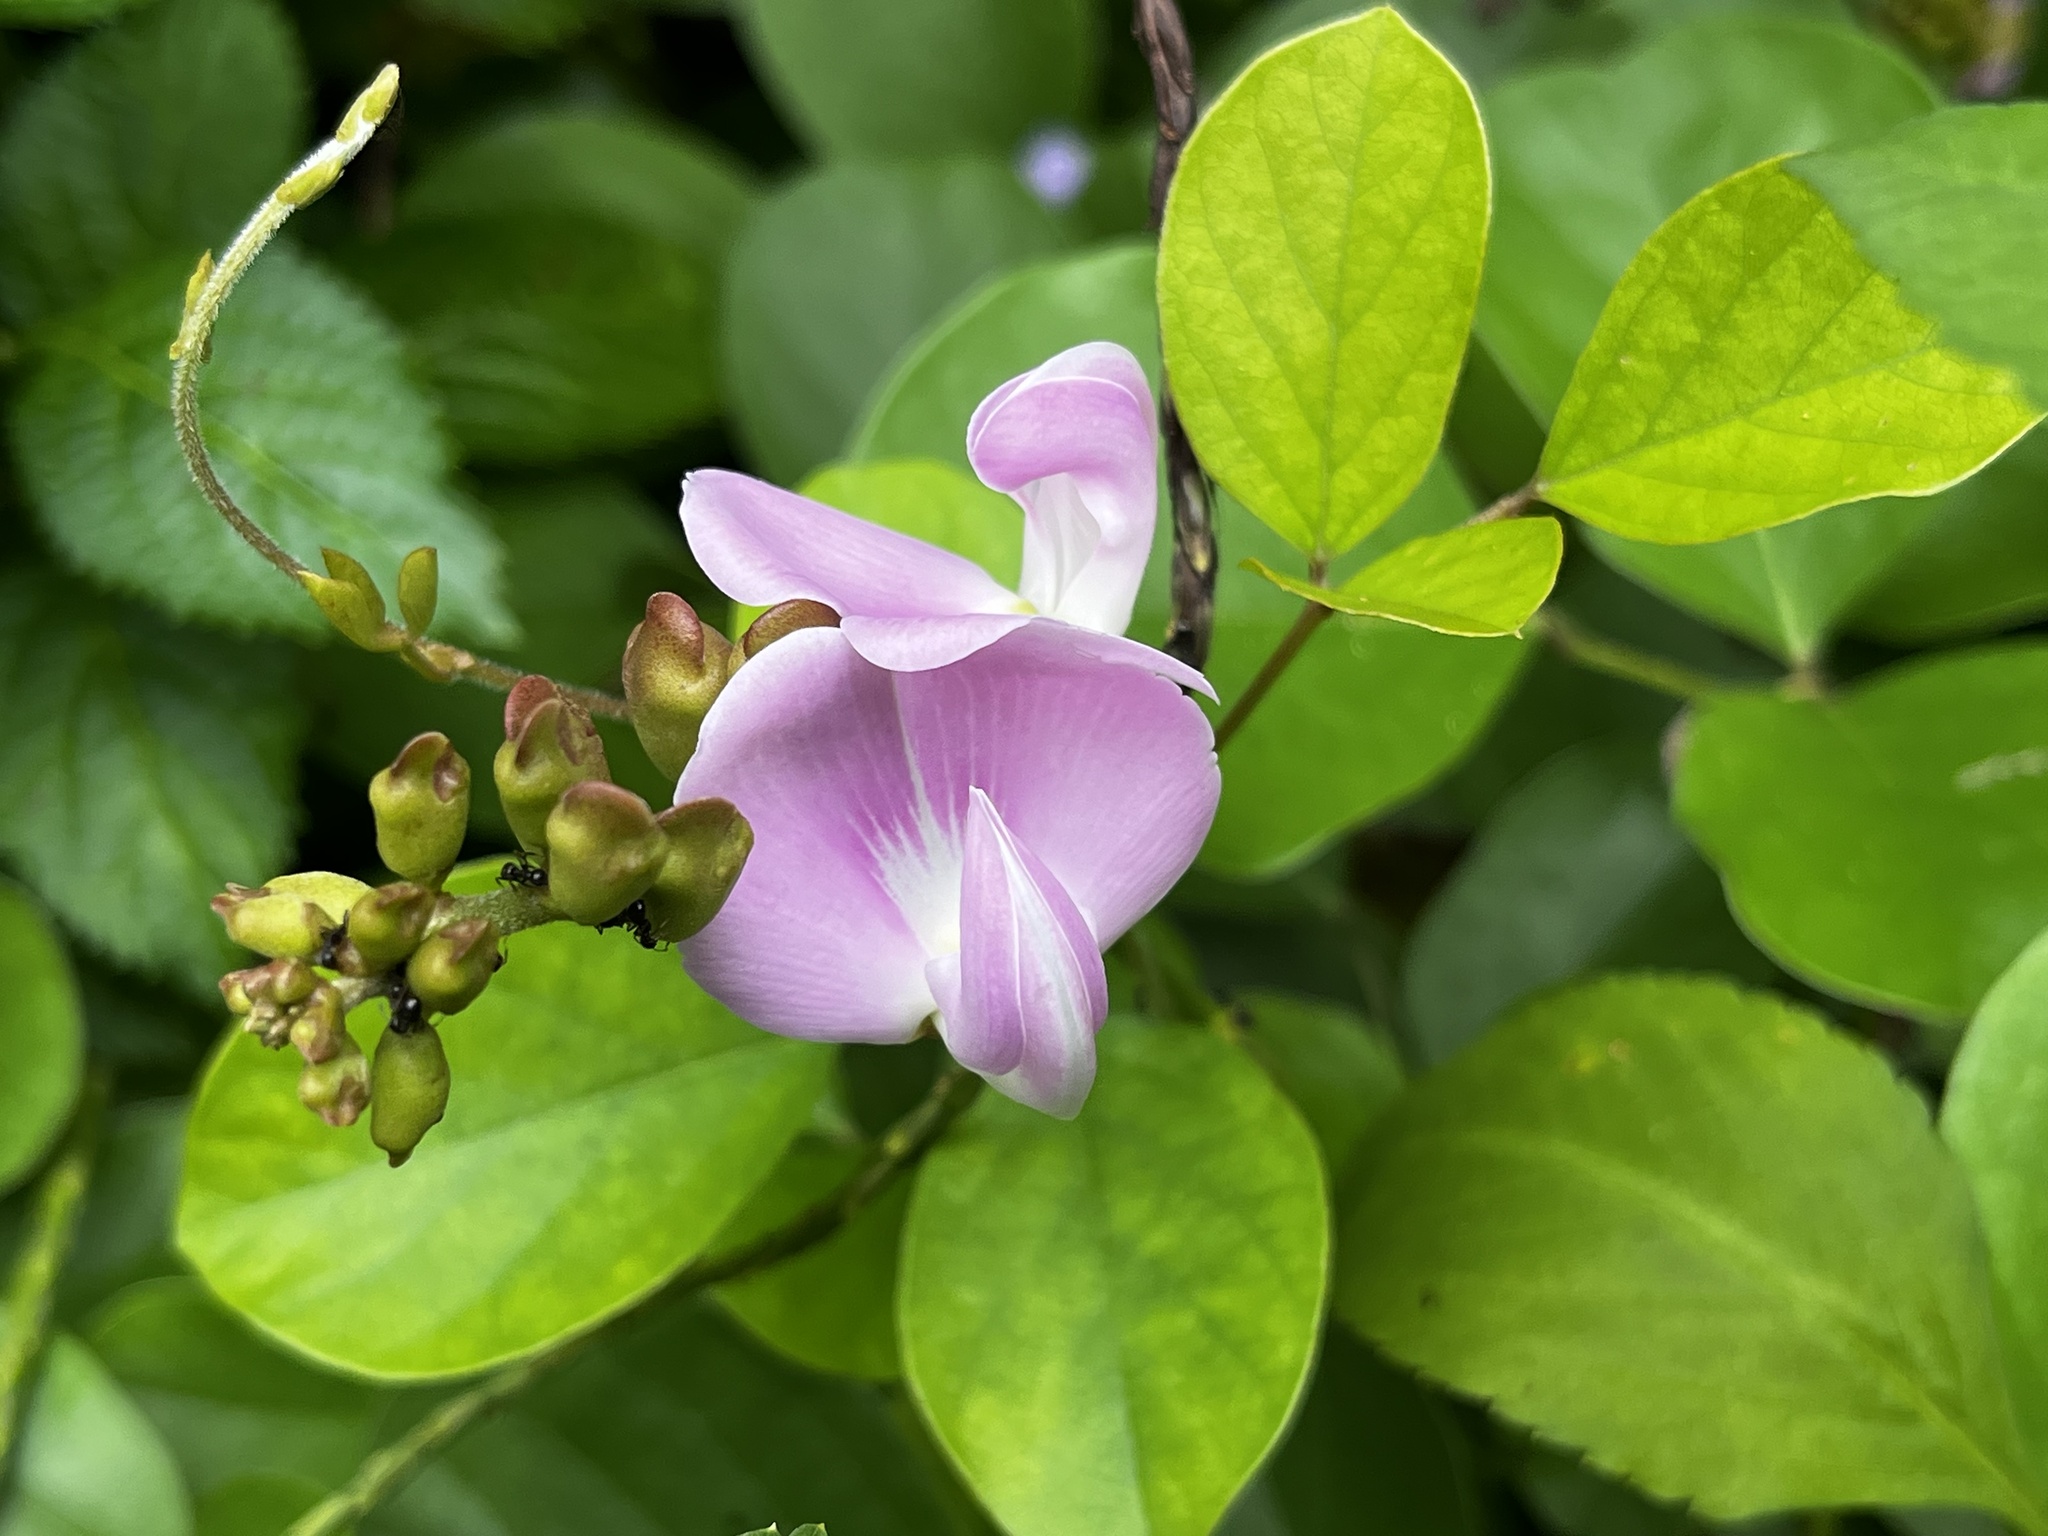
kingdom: Plantae
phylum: Tracheophyta
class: Magnoliopsida
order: Fabales
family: Fabaceae
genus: Canavalia
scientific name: Canavalia lineata
